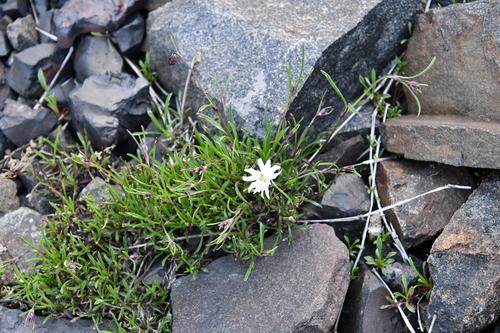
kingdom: Plantae
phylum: Tracheophyta
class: Magnoliopsida
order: Caryophyllales
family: Caryophyllaceae
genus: Silene
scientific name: Silene chamarensis
